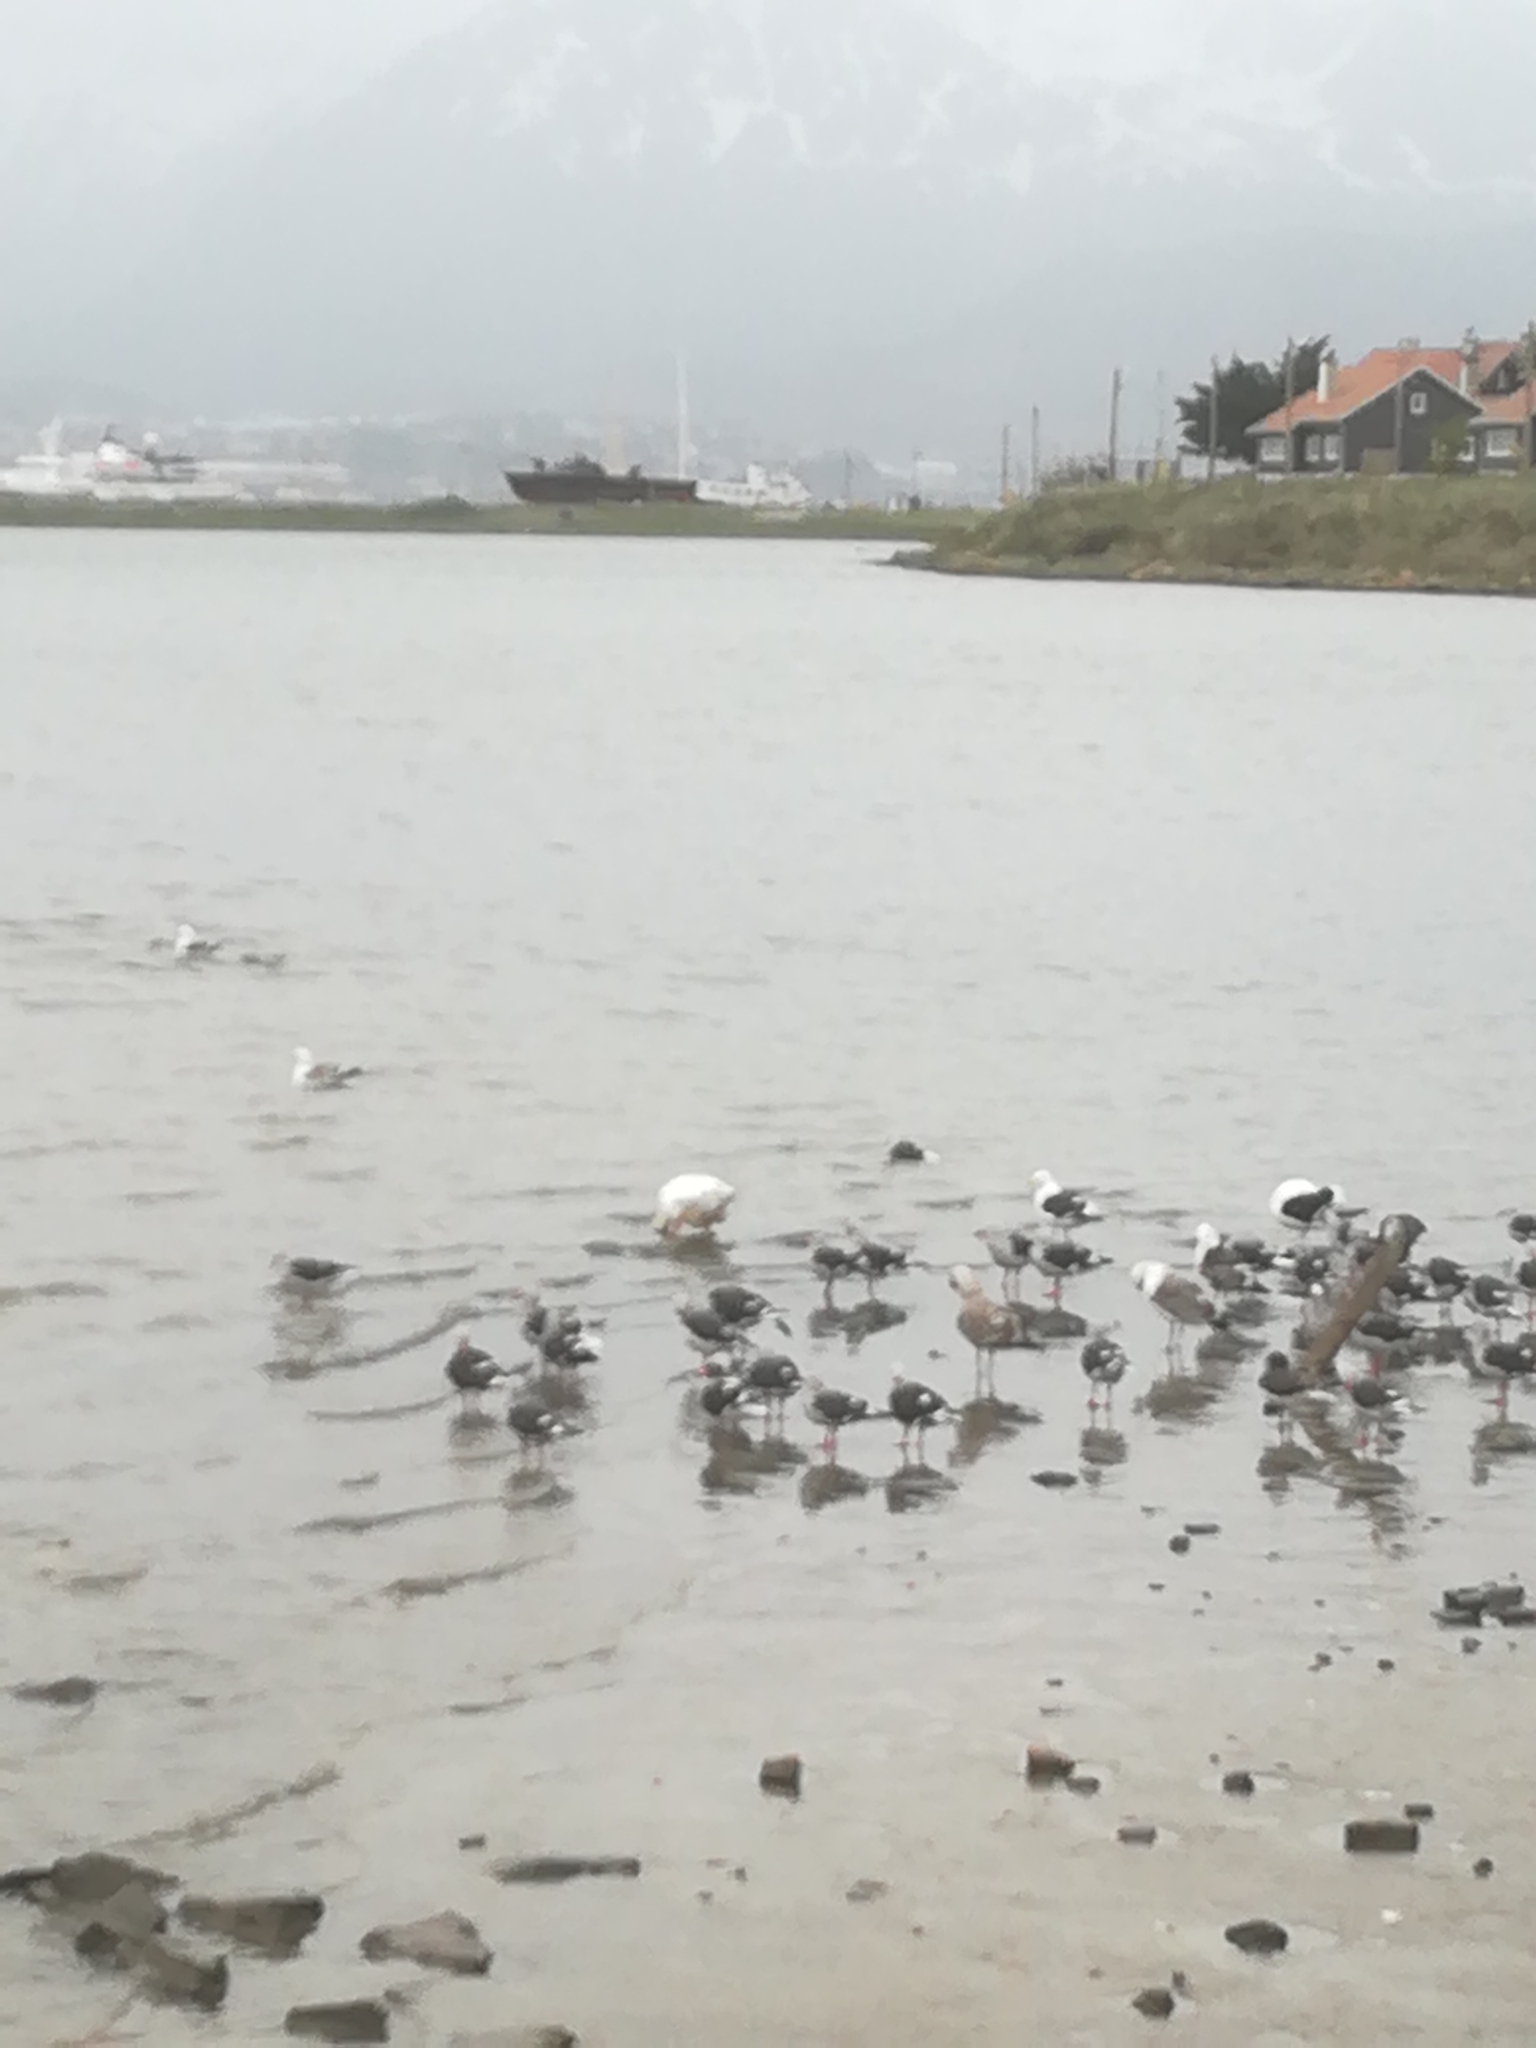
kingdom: Animalia
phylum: Chordata
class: Aves
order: Anseriformes
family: Anatidae
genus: Anser
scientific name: Anser anser
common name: Greylag goose
